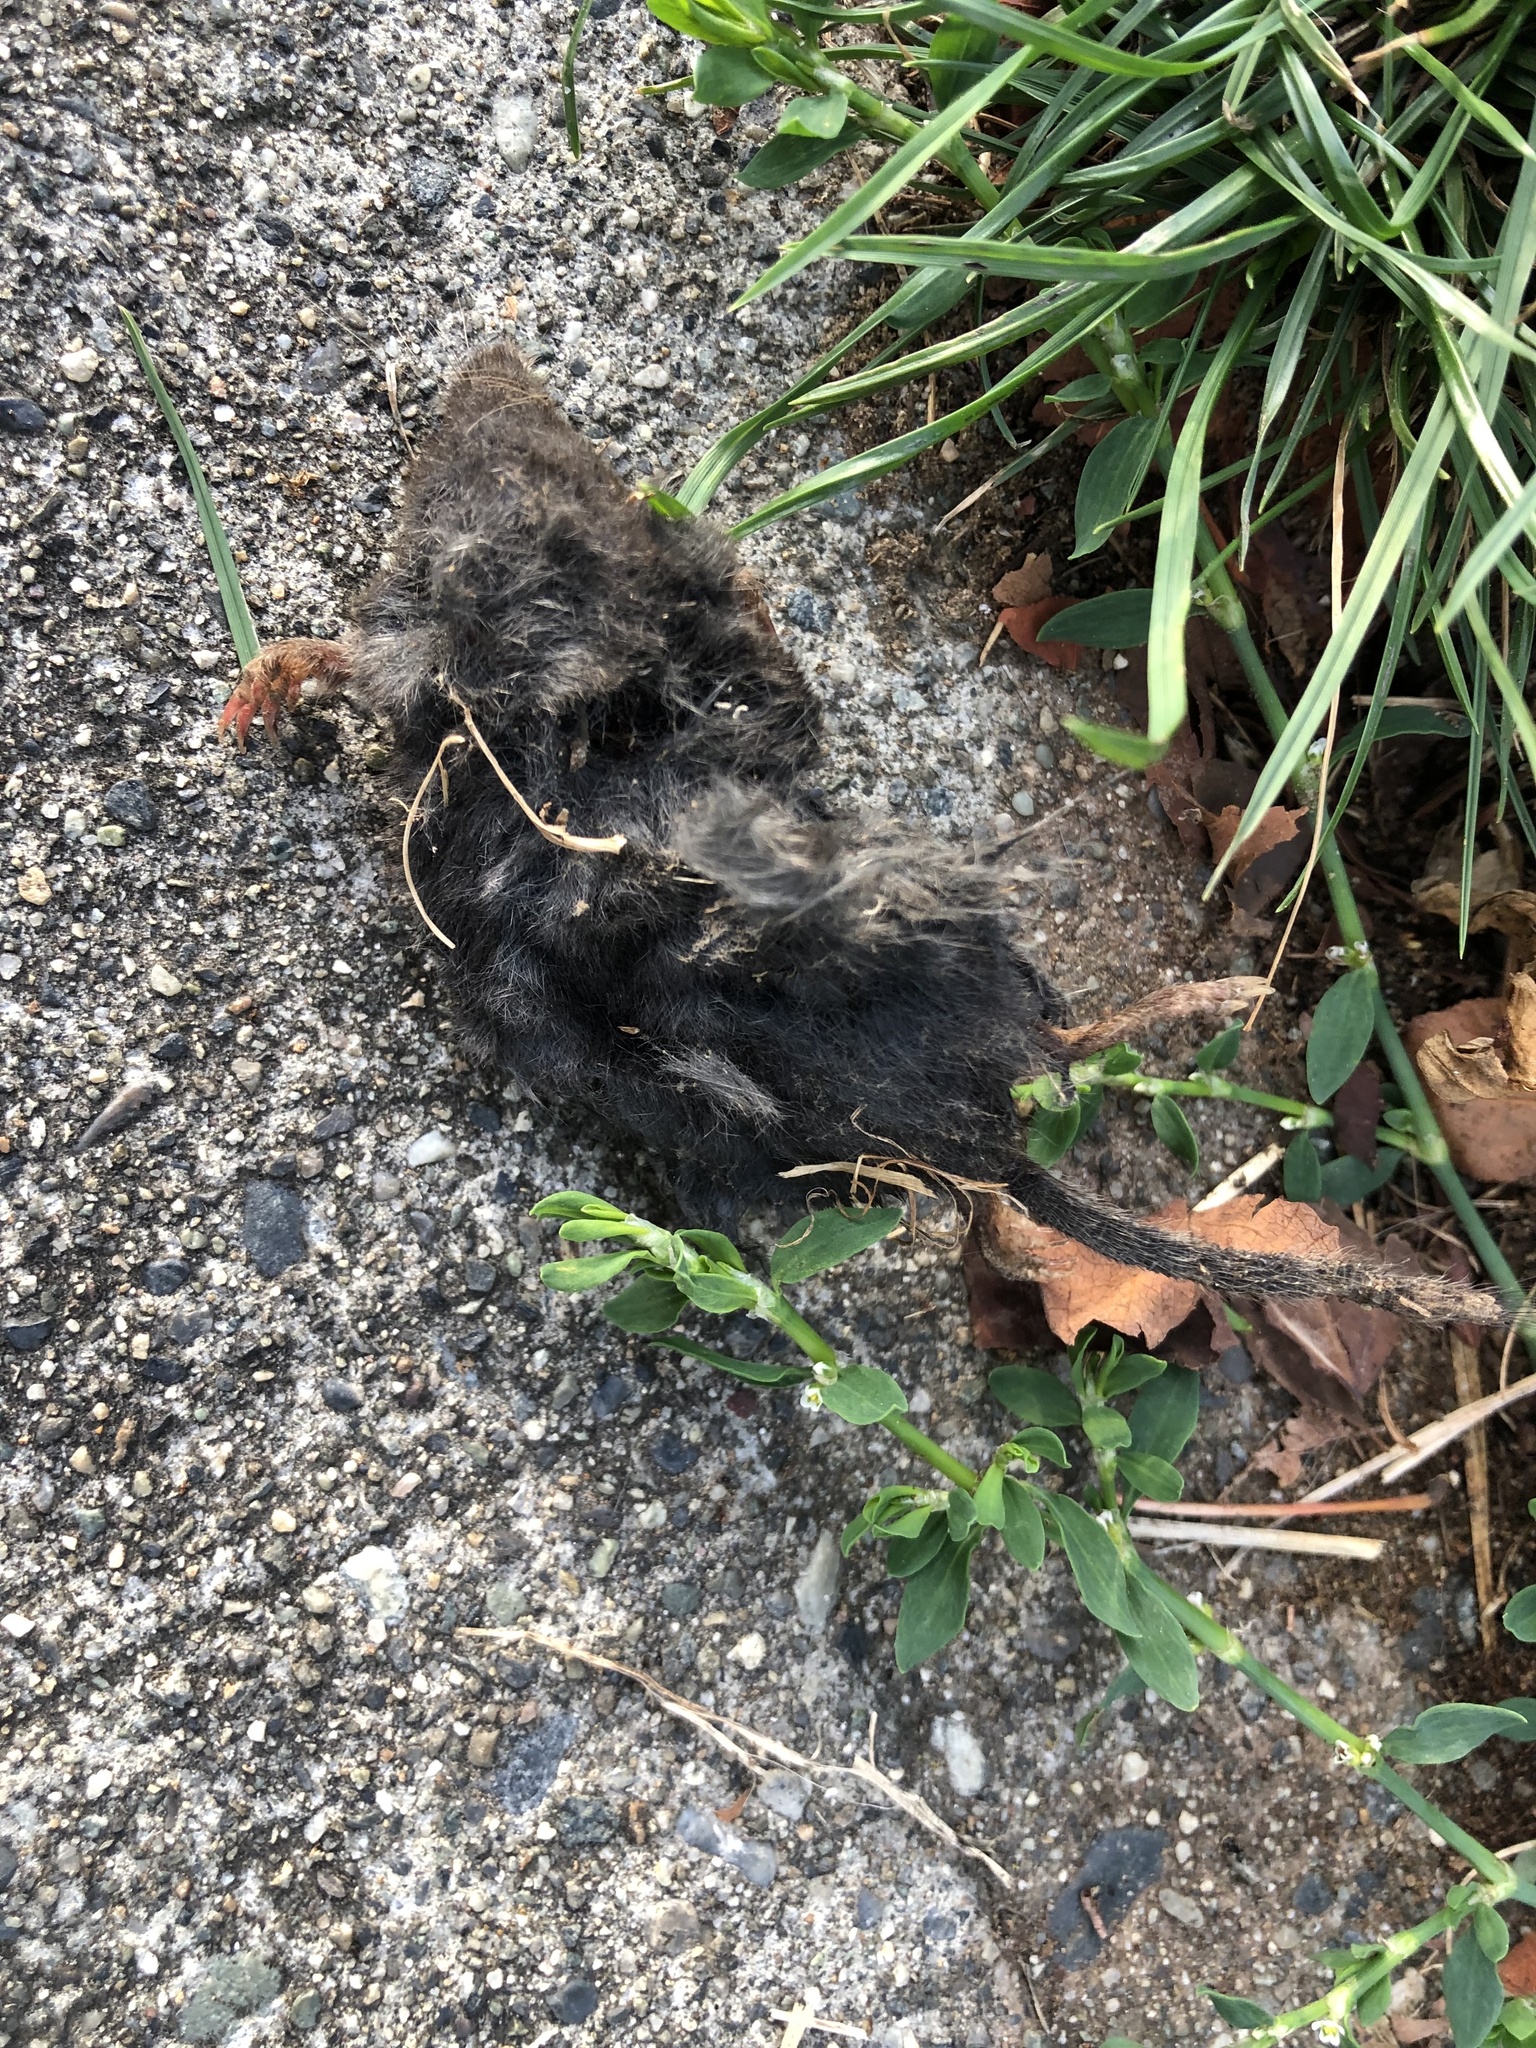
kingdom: Animalia
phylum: Chordata
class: Mammalia
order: Soricomorpha
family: Talpidae
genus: Neurotrichus
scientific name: Neurotrichus gibbsii
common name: American shrew mole
